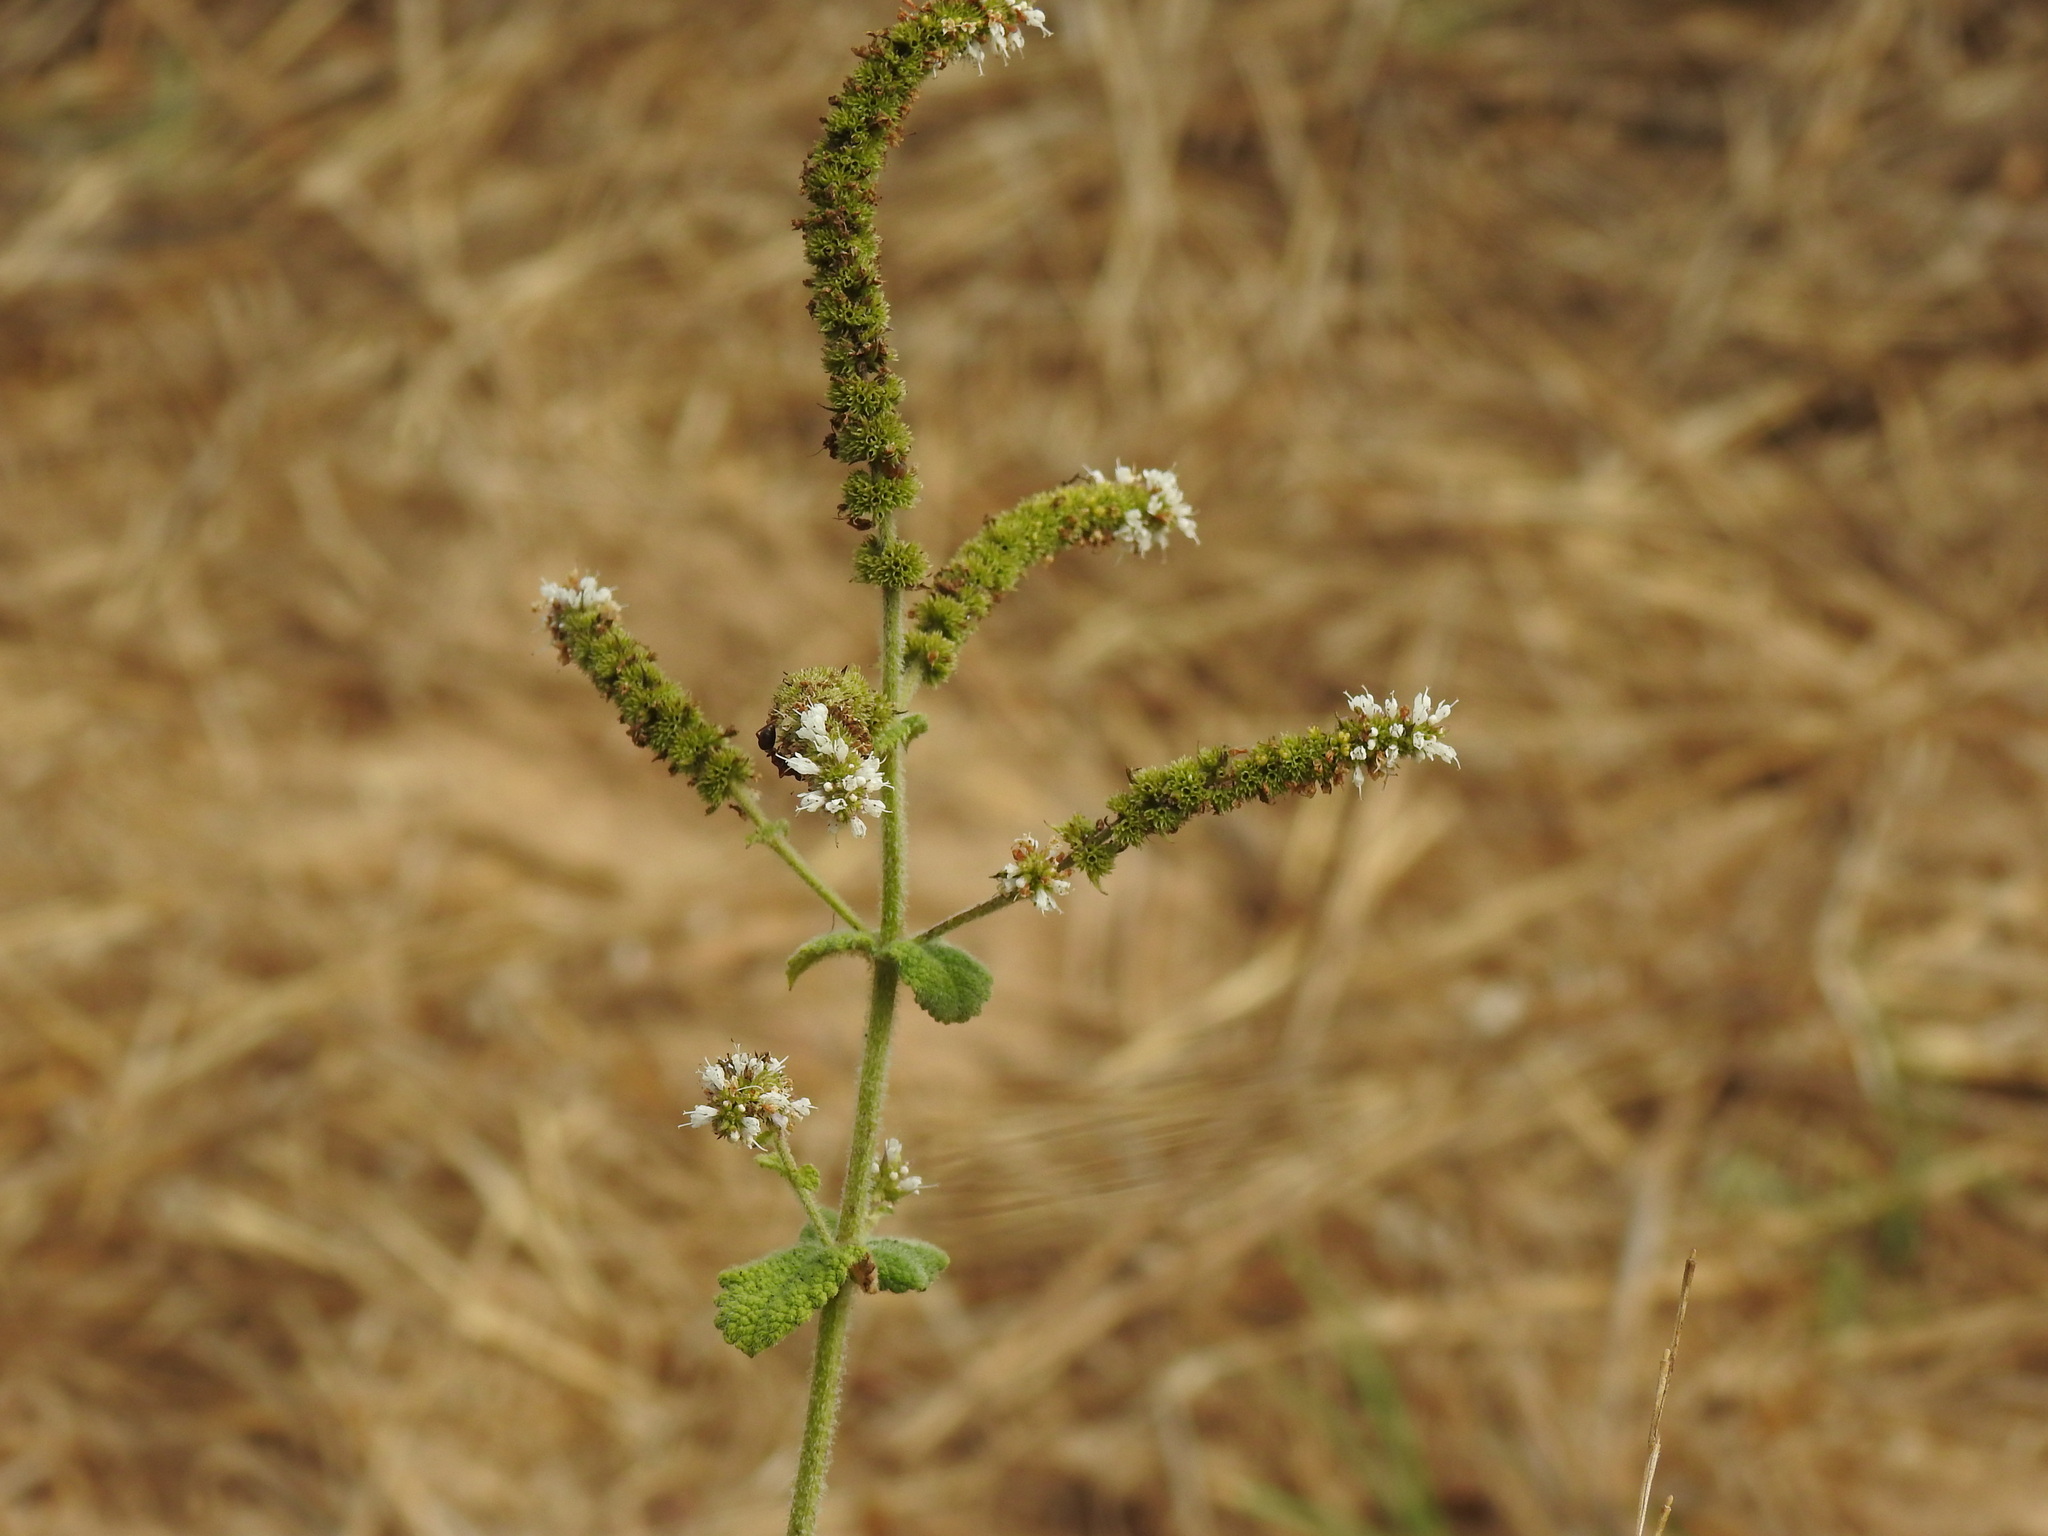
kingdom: Plantae
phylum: Tracheophyta
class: Magnoliopsida
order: Lamiales
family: Lamiaceae
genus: Mentha
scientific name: Mentha suaveolens
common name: Apple mint
